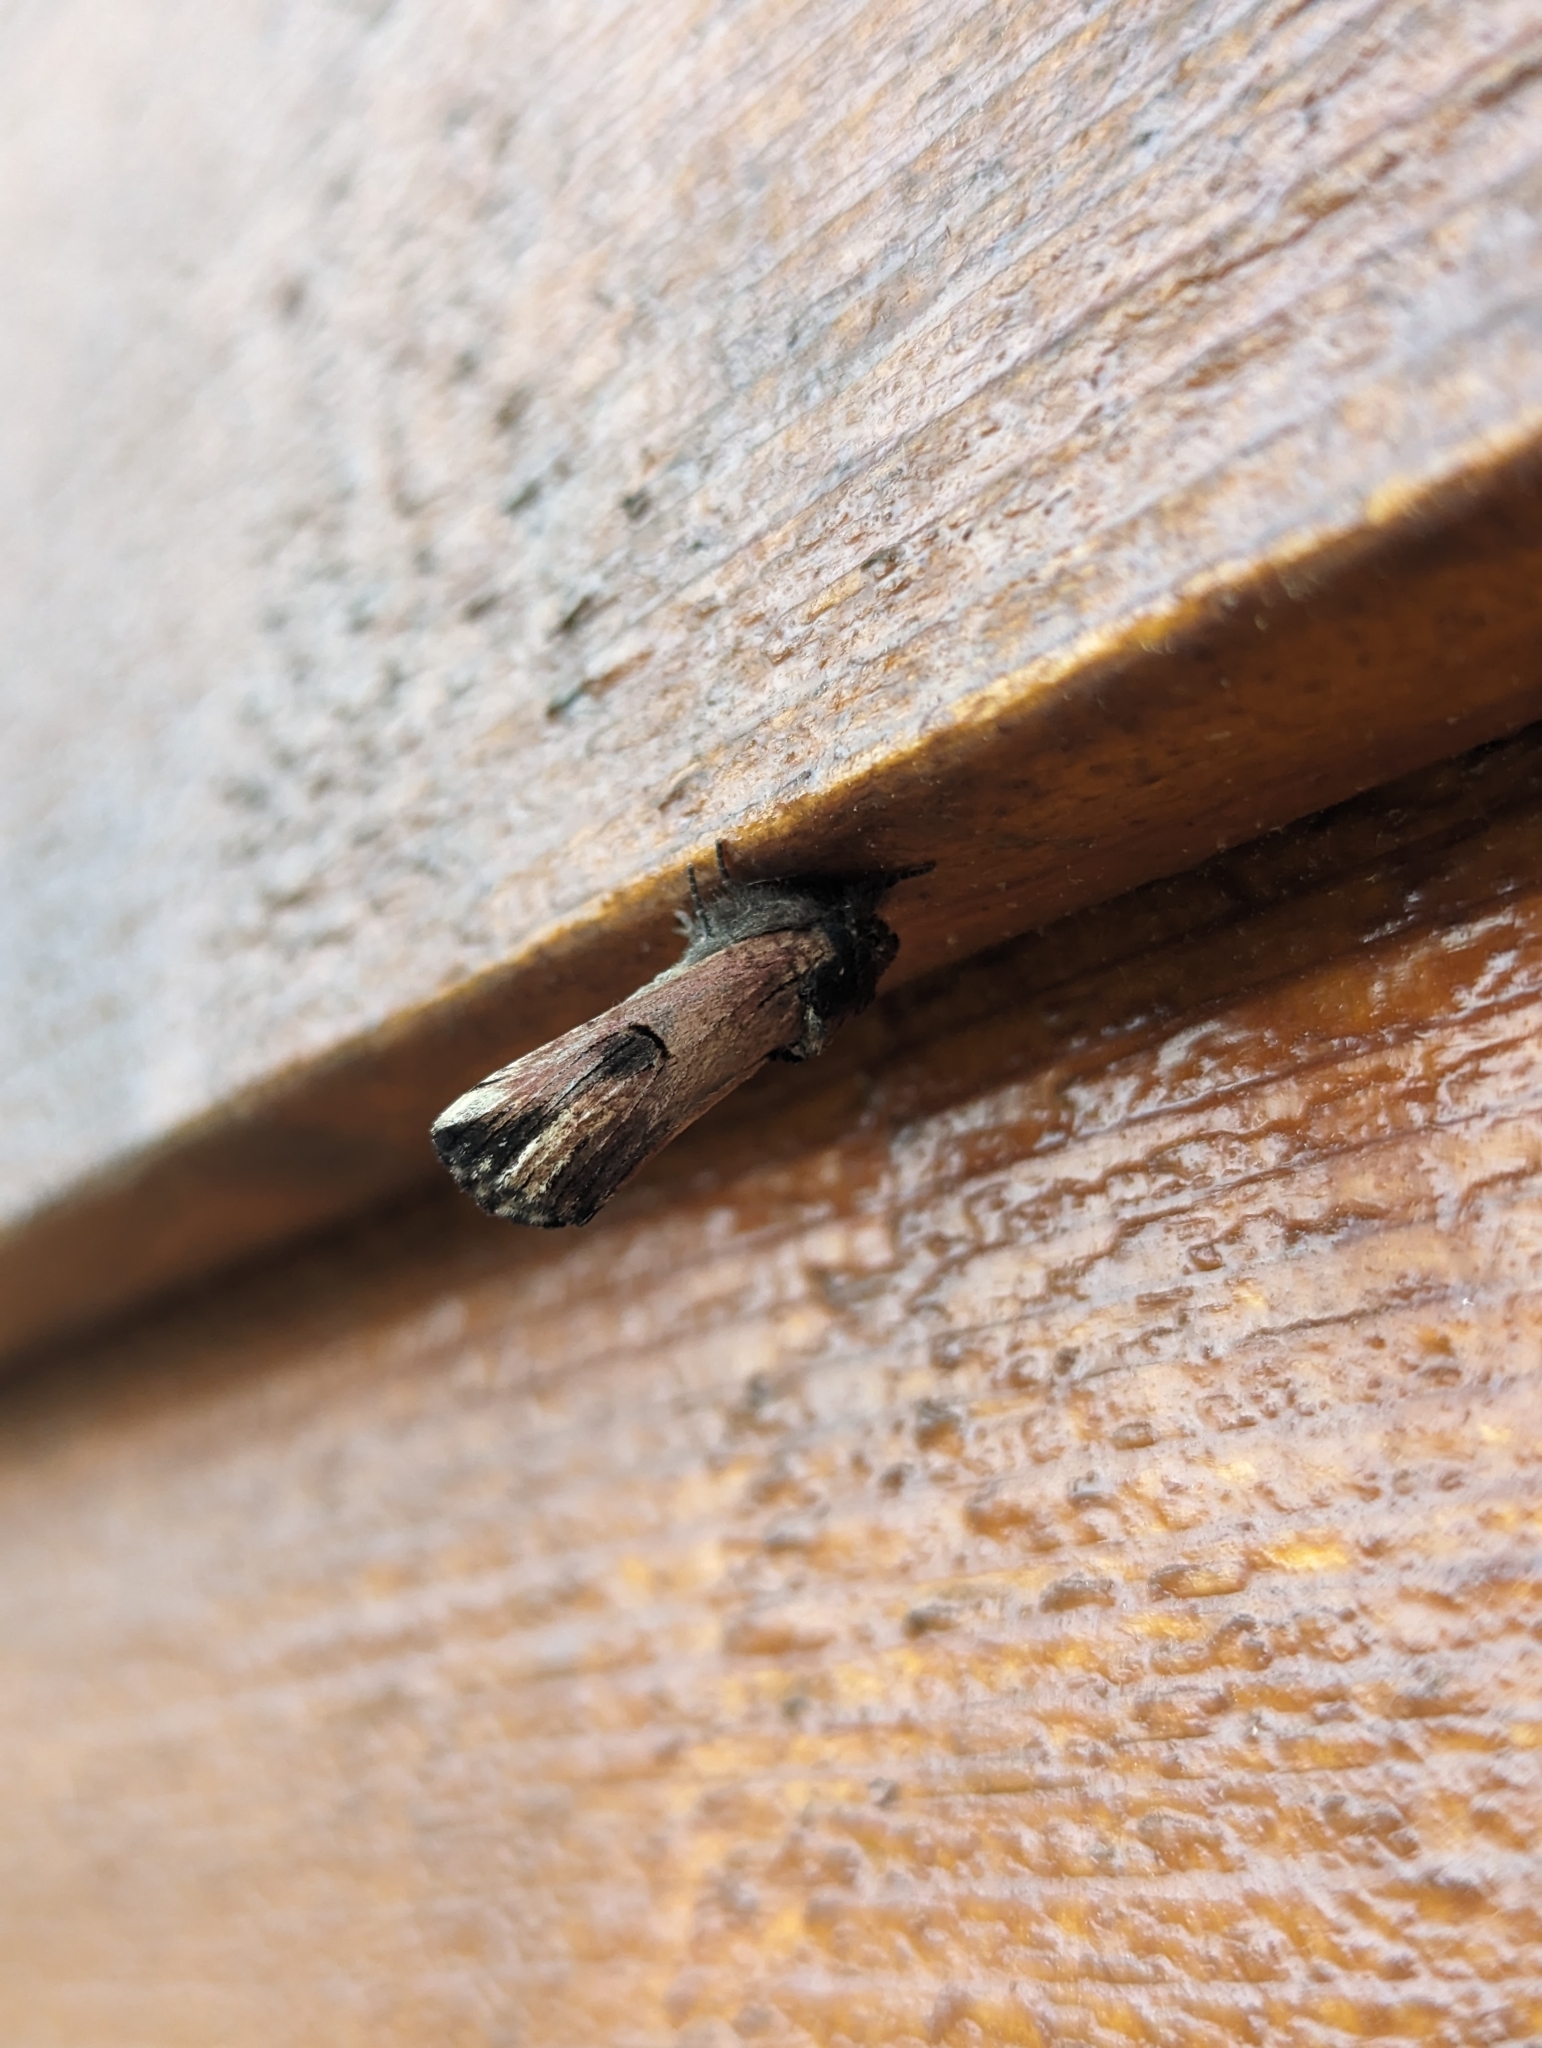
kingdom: Animalia
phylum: Arthropoda
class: Insecta
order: Lepidoptera
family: Notodontidae
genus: Schizura
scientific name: Schizura badia
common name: Chestnut schizura
